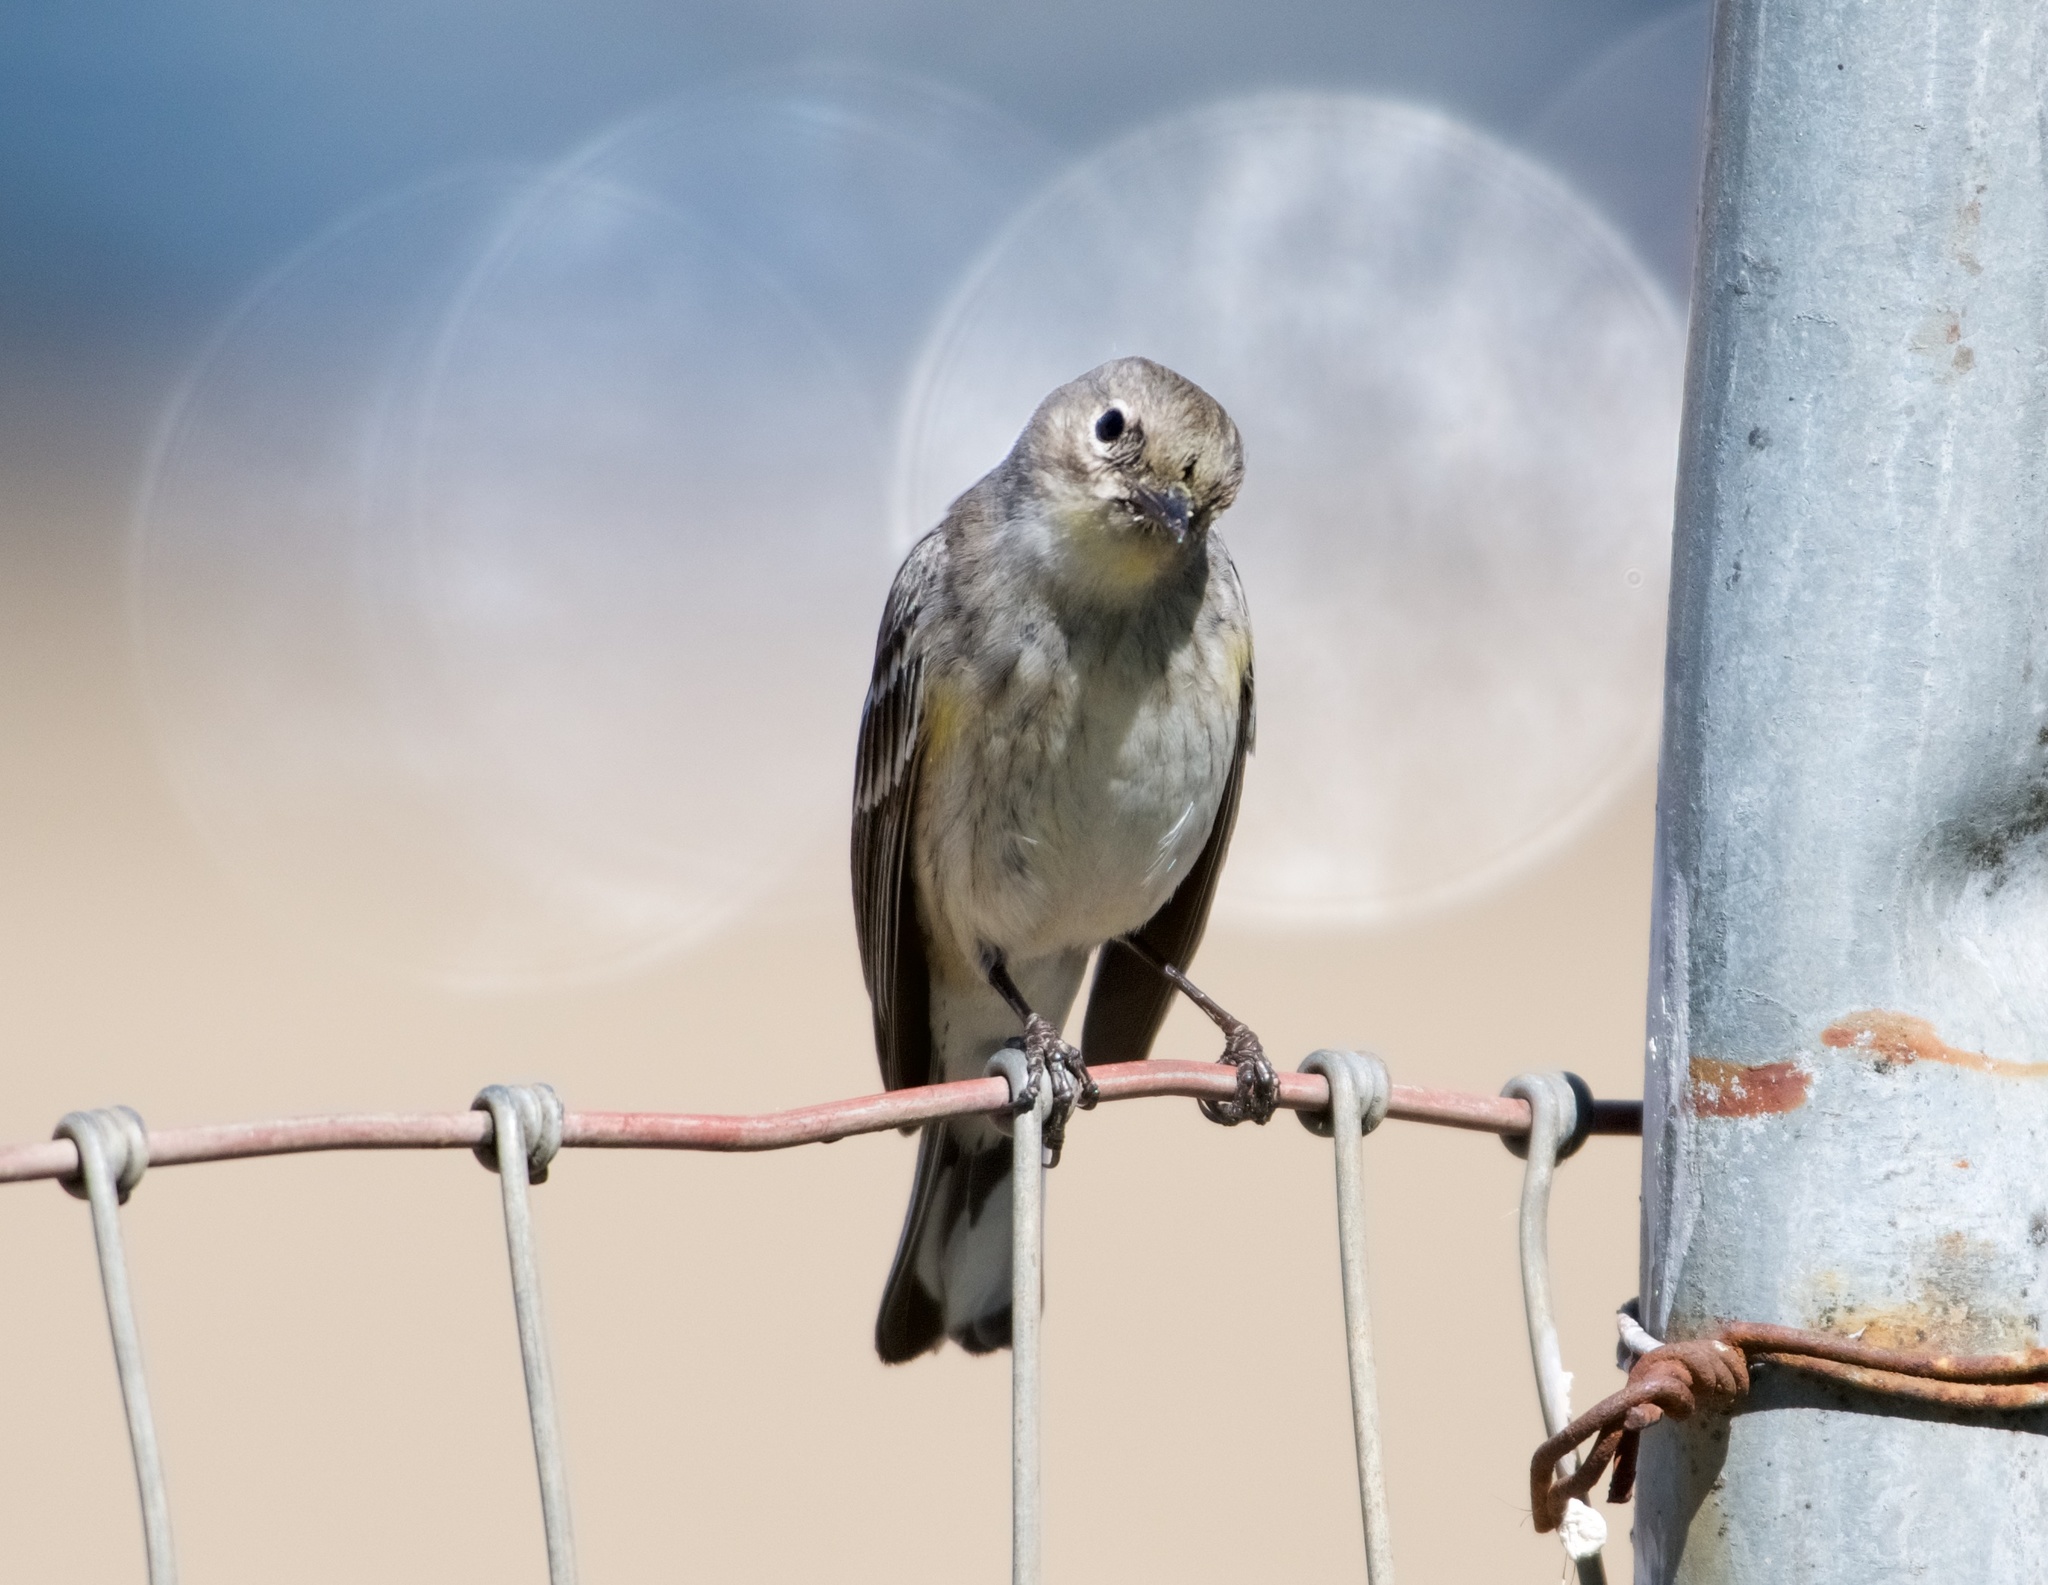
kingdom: Animalia
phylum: Chordata
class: Aves
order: Passeriformes
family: Parulidae
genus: Setophaga
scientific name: Setophaga coronata
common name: Myrtle warbler
